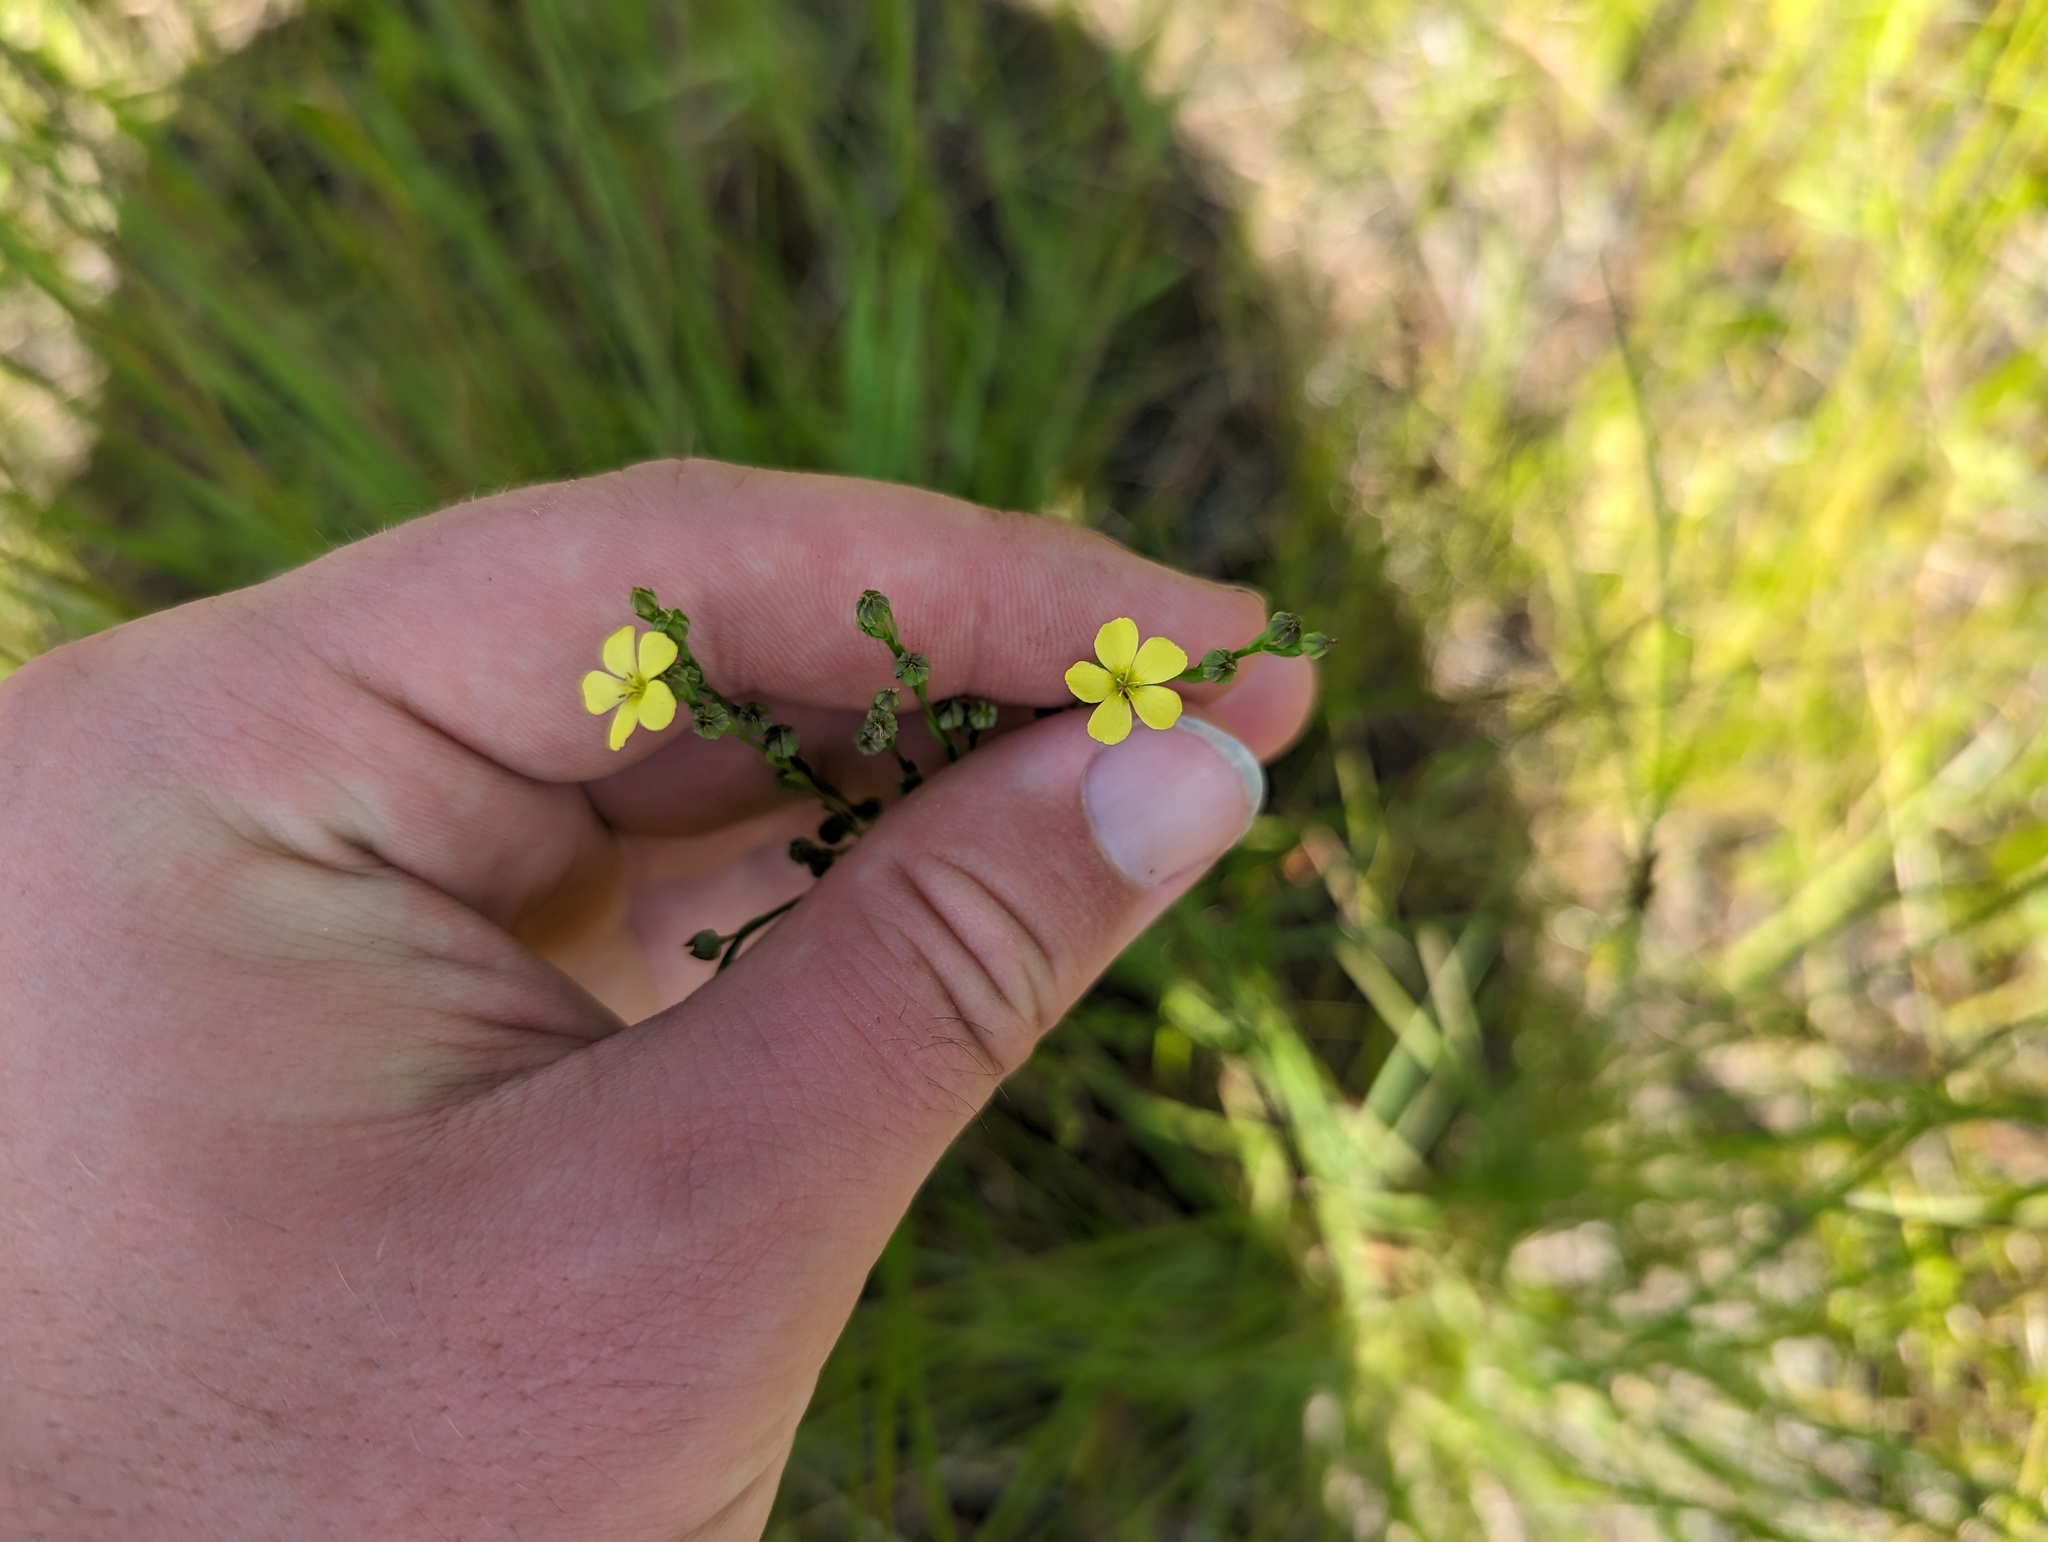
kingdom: Plantae
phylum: Tracheophyta
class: Magnoliopsida
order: Malpighiales
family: Linaceae
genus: Linum
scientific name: Linum sulcatum
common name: Grooved flax
